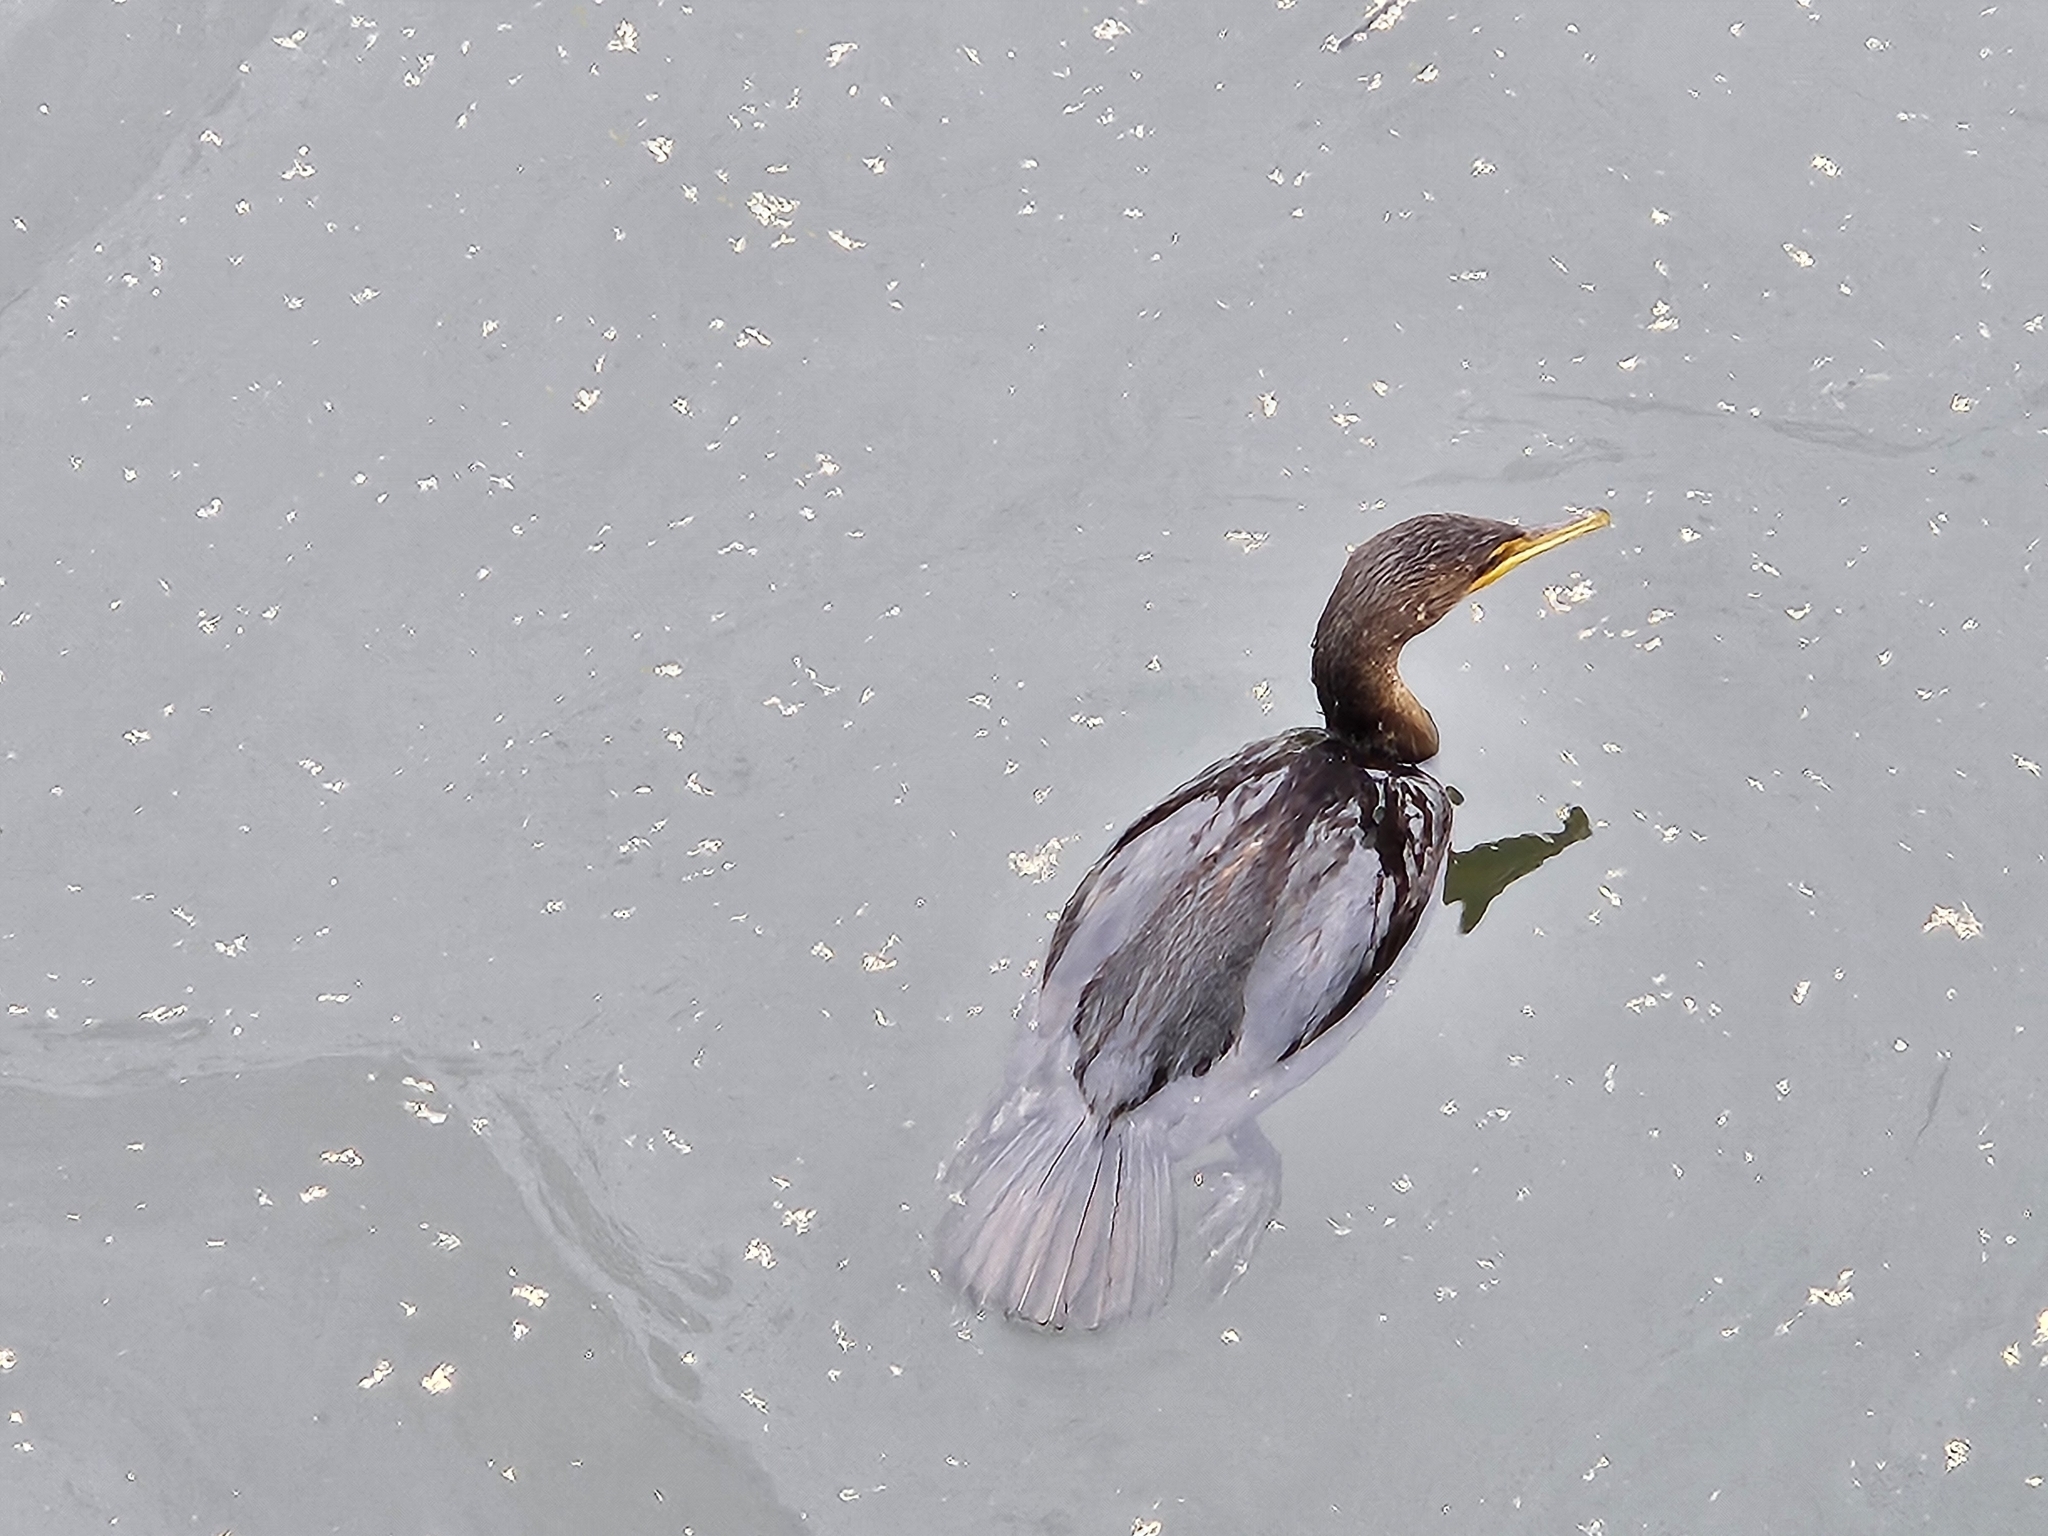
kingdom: Animalia
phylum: Chordata
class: Aves
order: Suliformes
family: Phalacrocoracidae
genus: Phalacrocorax
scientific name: Phalacrocorax auritus
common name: Double-crested cormorant
